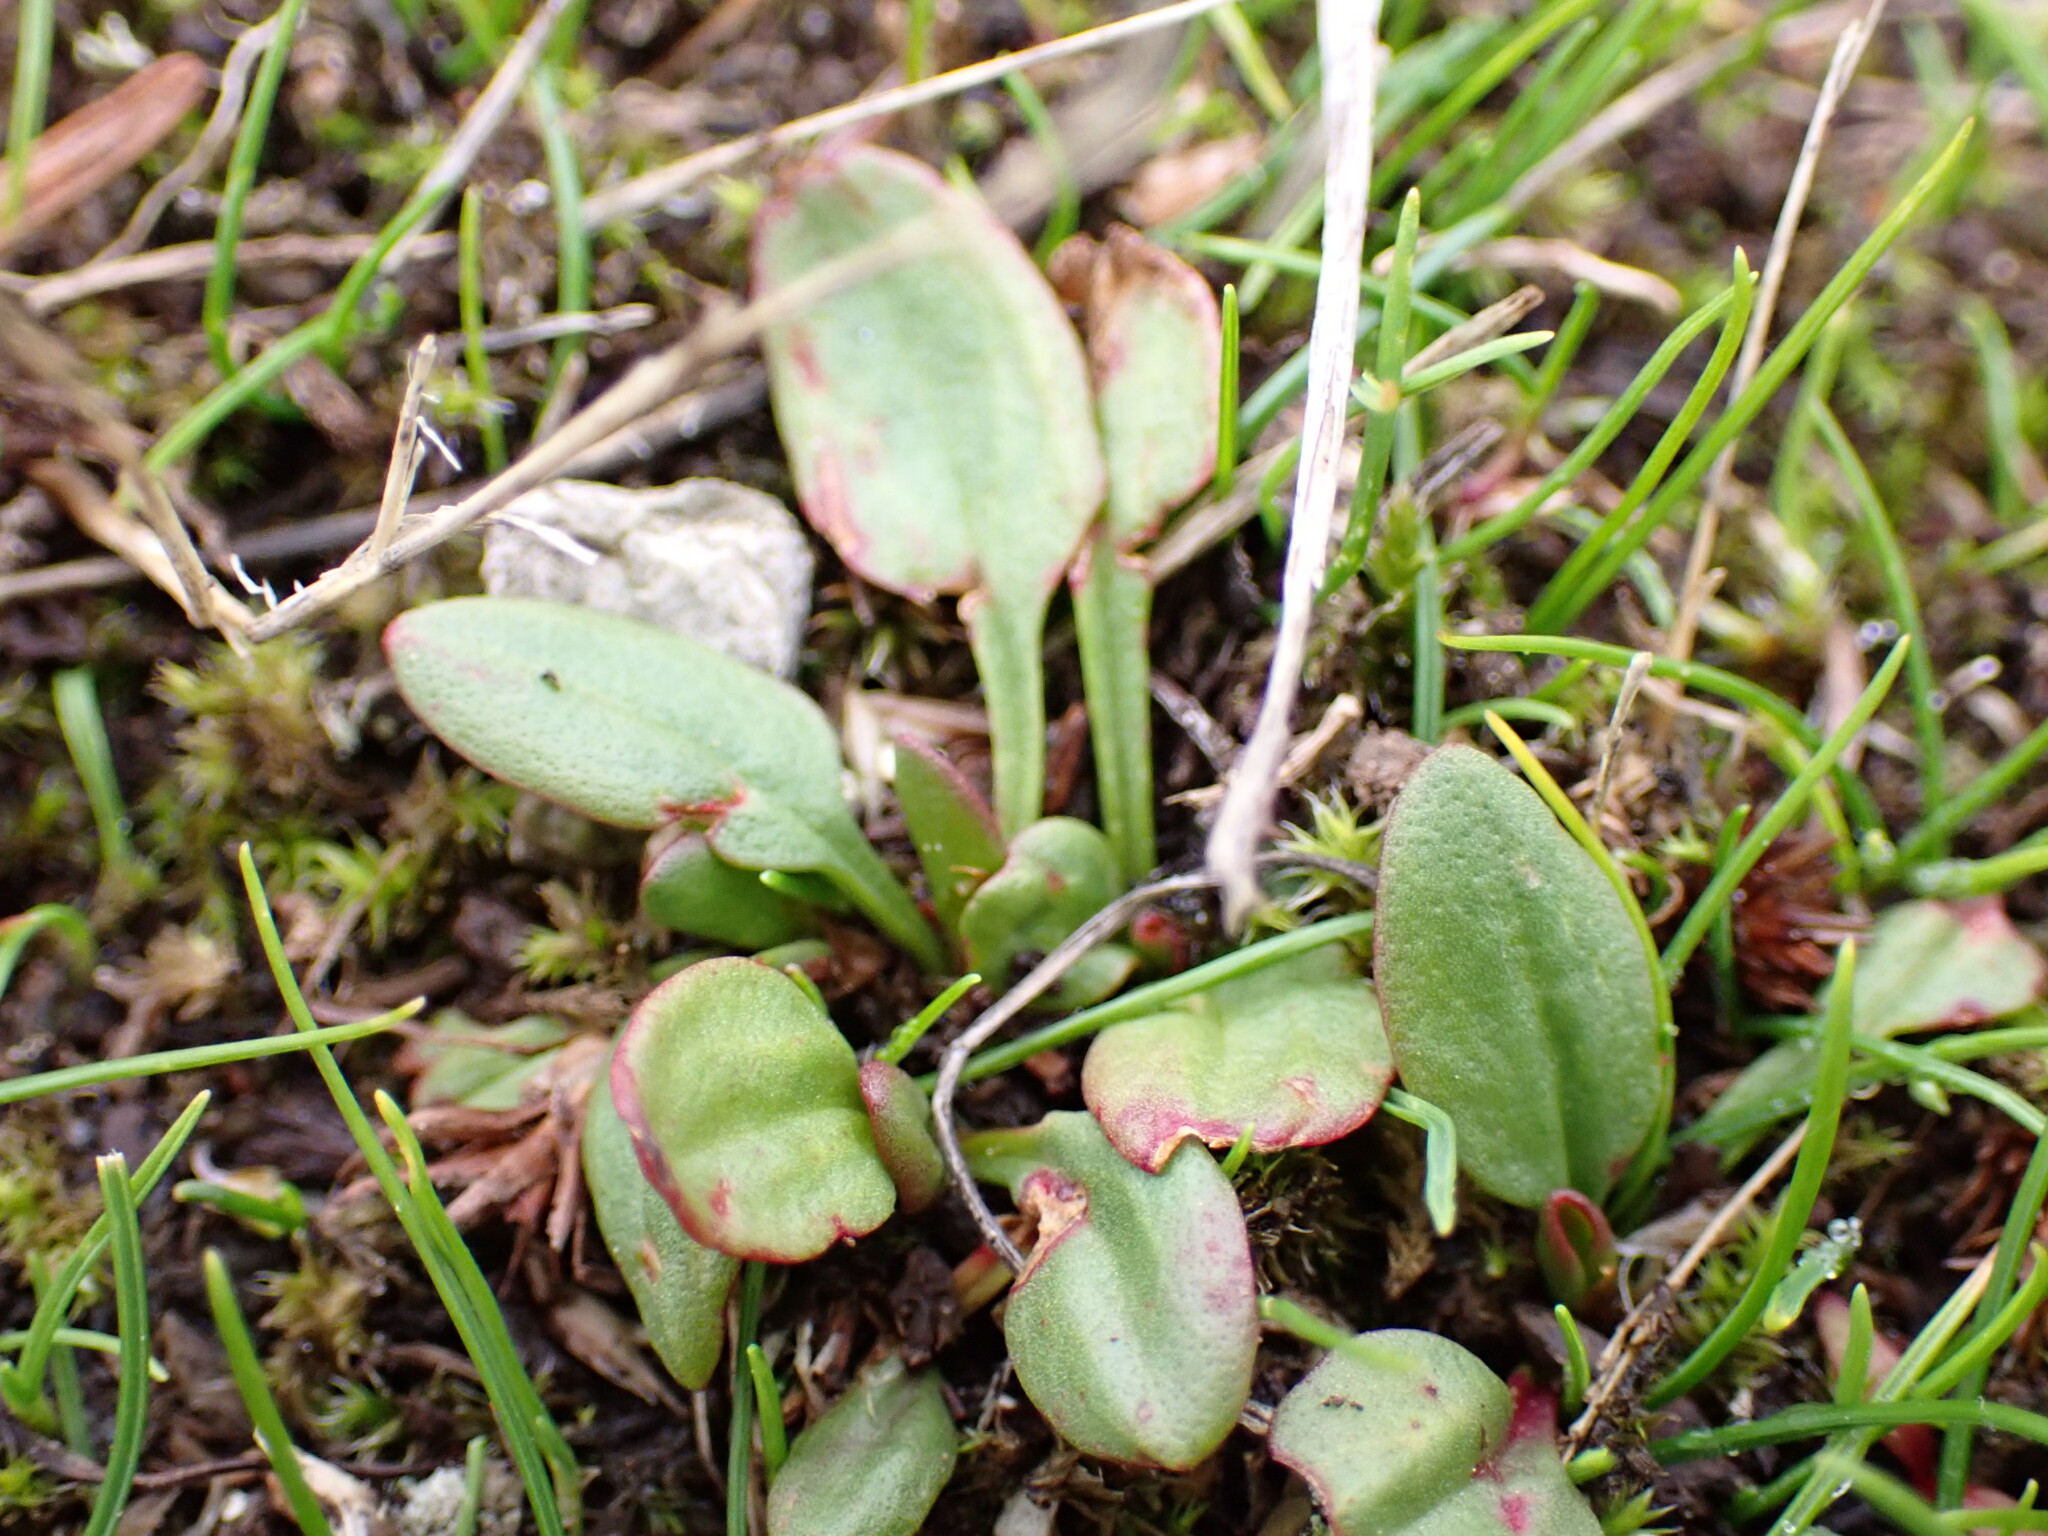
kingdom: Plantae
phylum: Tracheophyta
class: Magnoliopsida
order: Caryophyllales
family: Polygonaceae
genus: Rumex
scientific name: Rumex acetosella
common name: Common sheep sorrel
